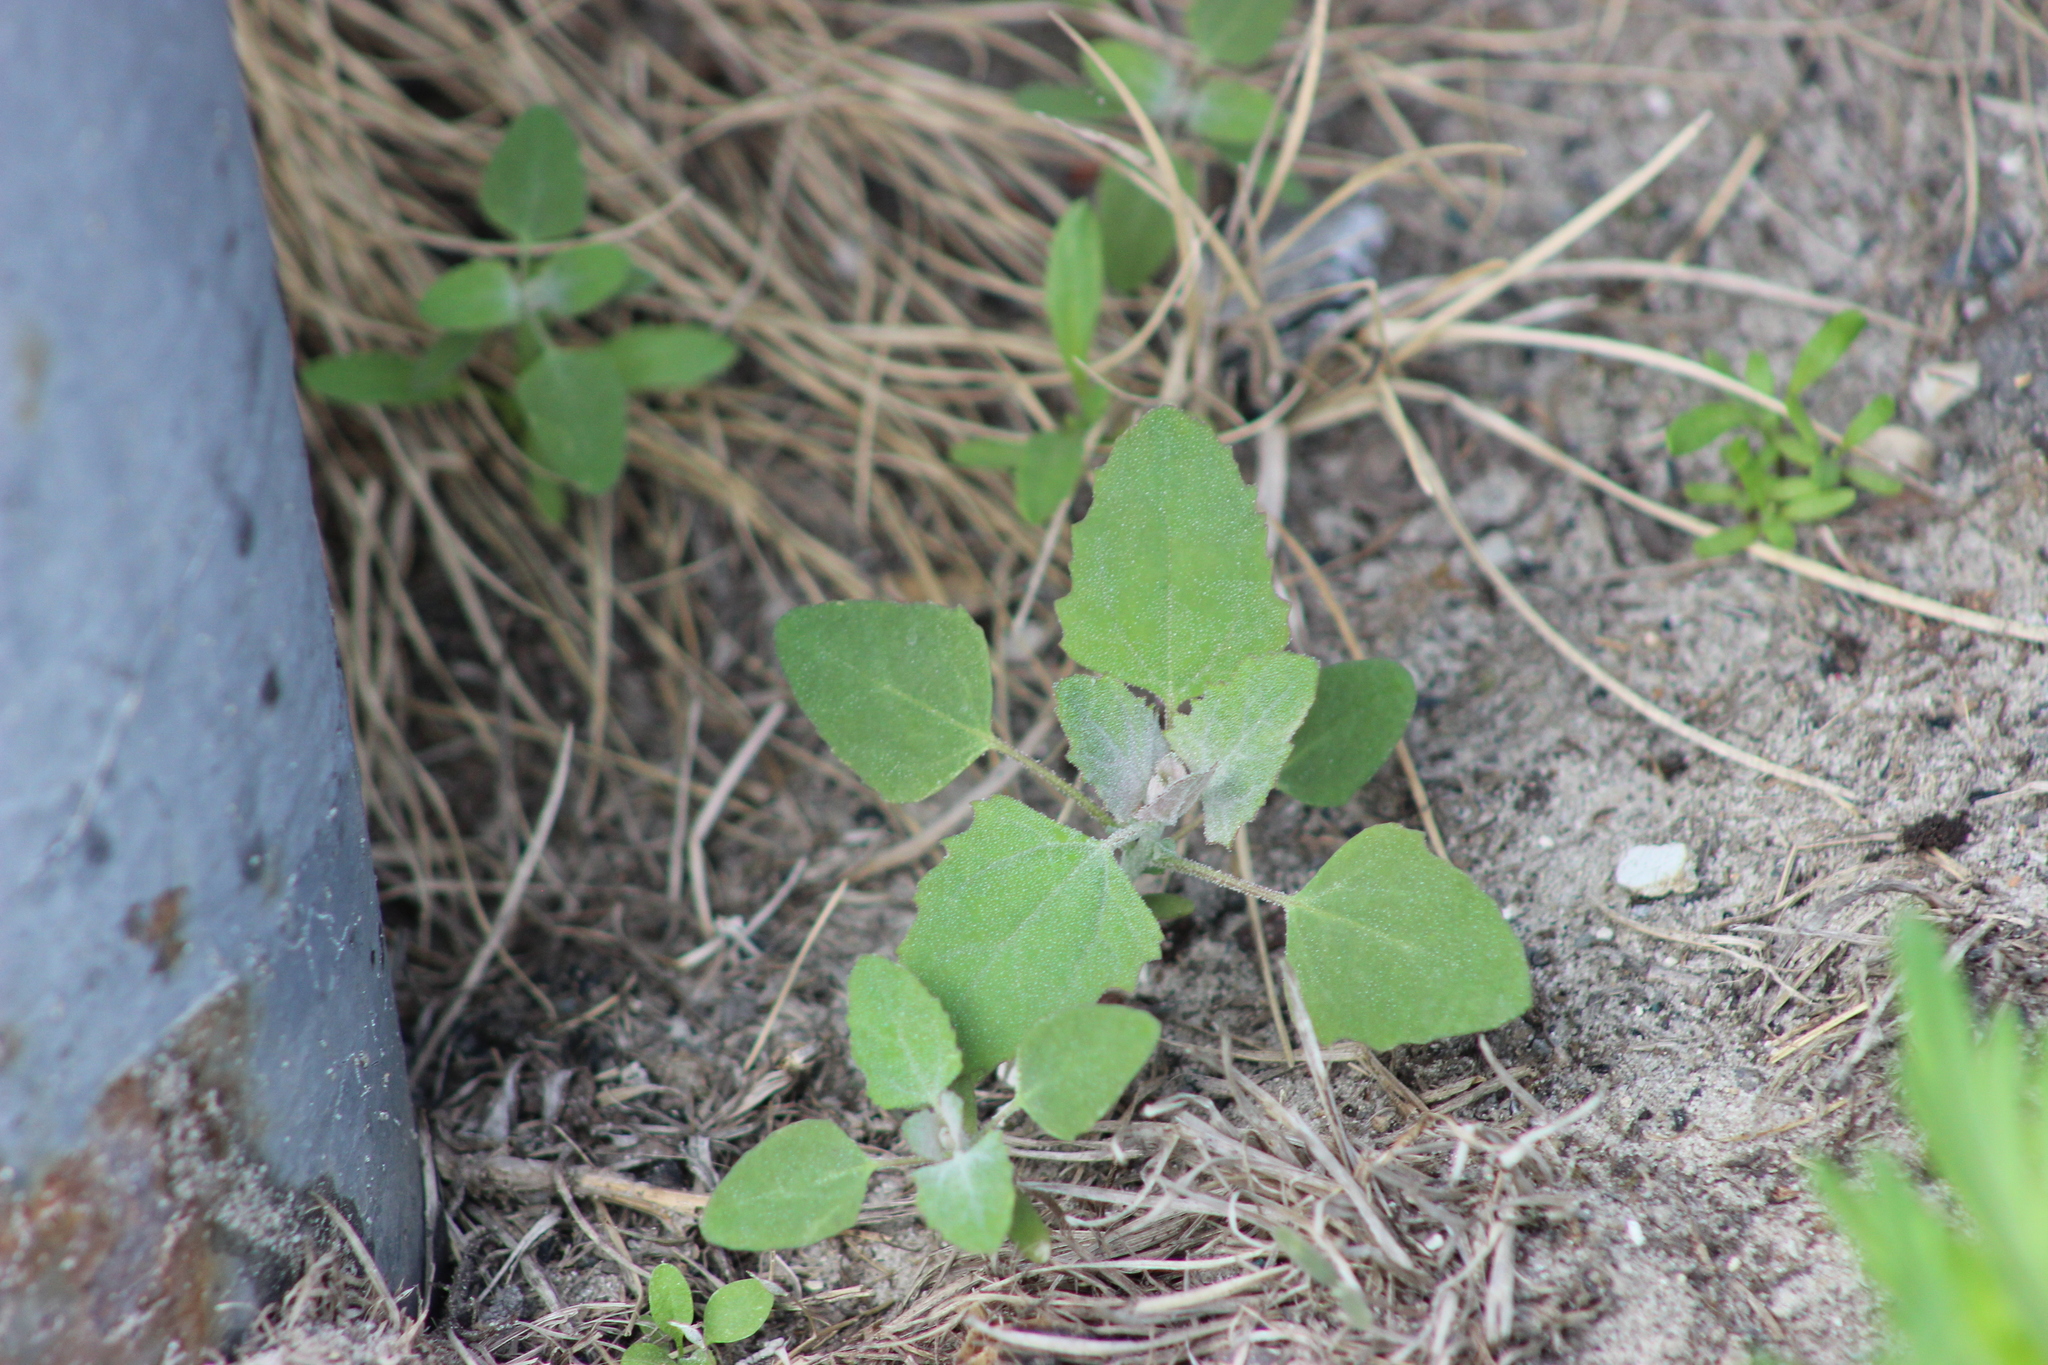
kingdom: Plantae
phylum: Tracheophyta
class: Magnoliopsida
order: Caryophyllales
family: Amaranthaceae
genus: Chenopodium
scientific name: Chenopodium album
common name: Fat-hen
